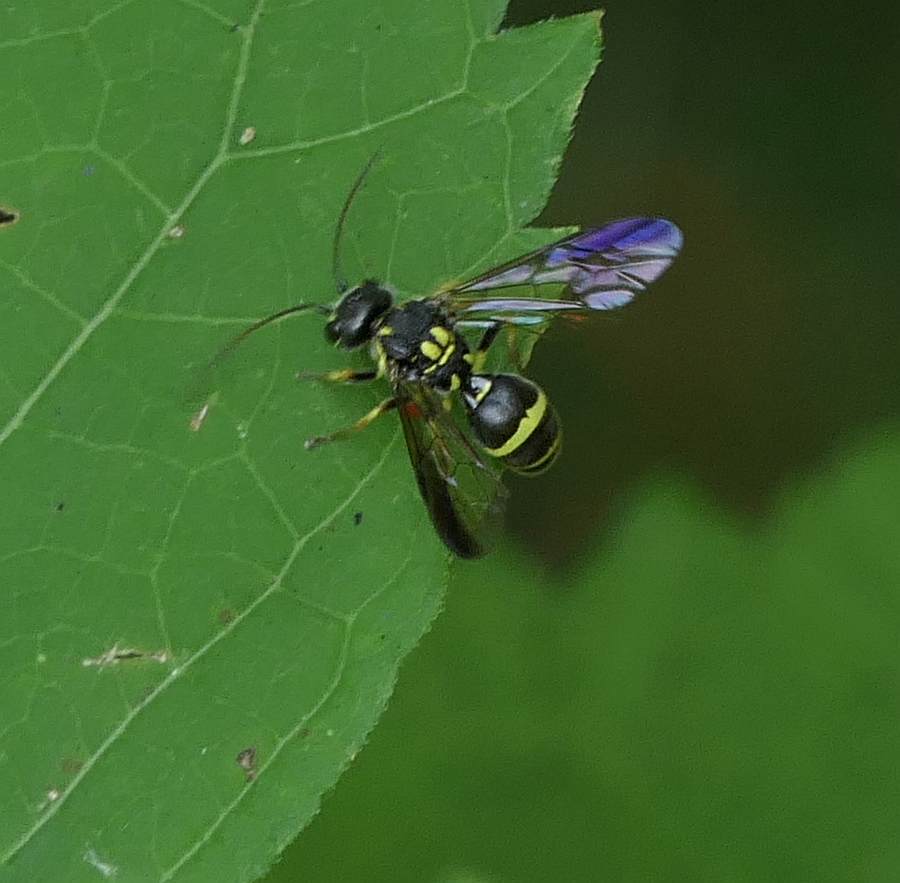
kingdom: Animalia
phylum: Arthropoda
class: Insecta
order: Hymenoptera
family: Trigonalidae
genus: Taeniogonalos
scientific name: Taeniogonalos gundlachii
